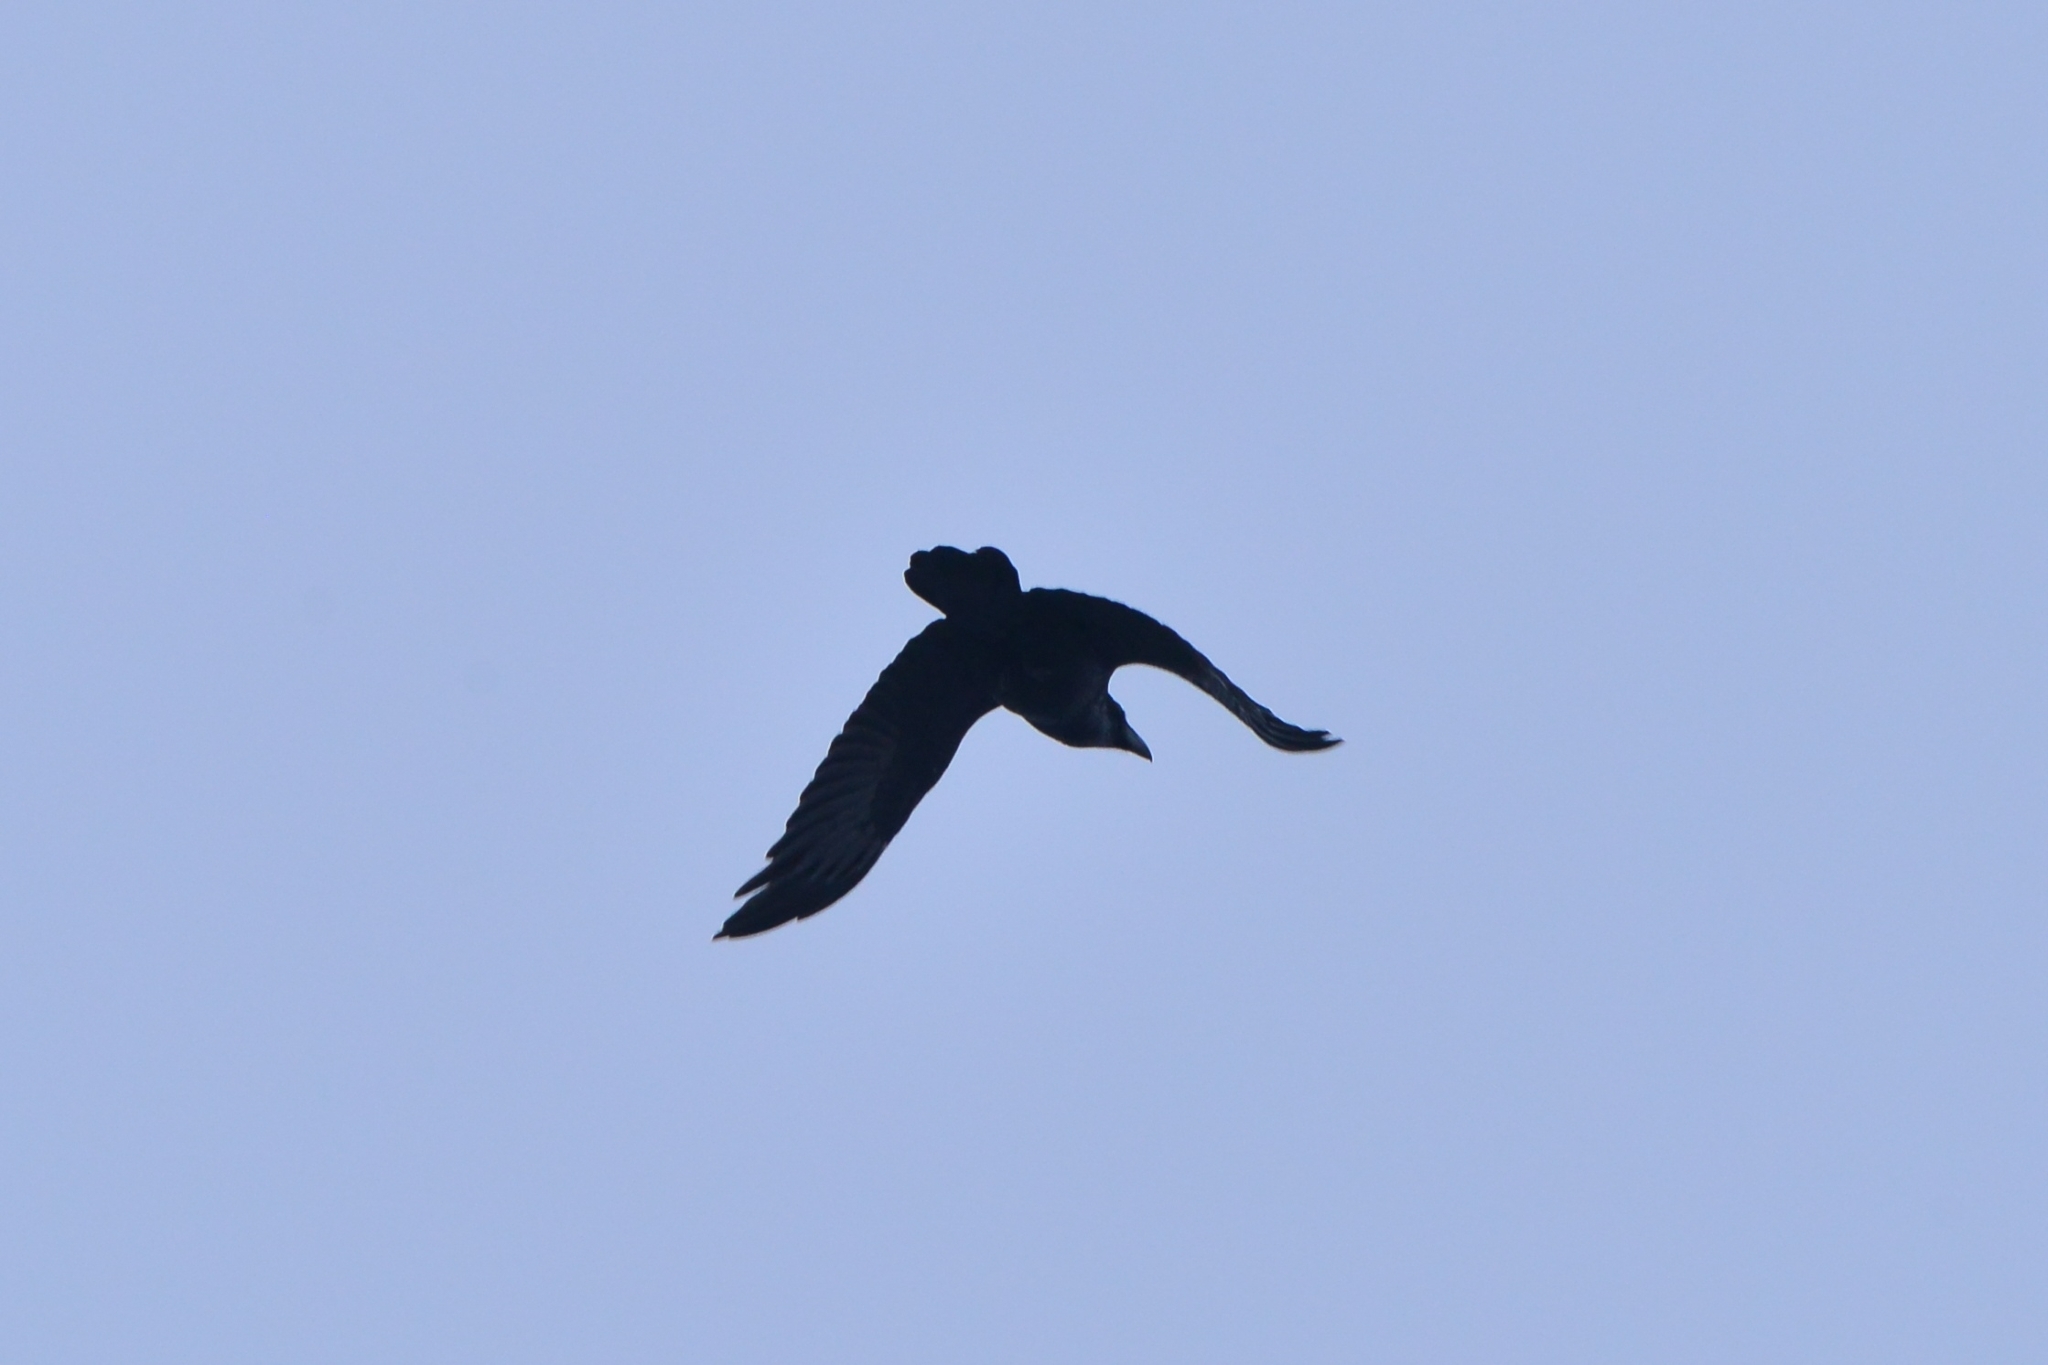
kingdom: Animalia
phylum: Chordata
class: Aves
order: Passeriformes
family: Corvidae
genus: Corvus
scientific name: Corvus corax
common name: Common raven
